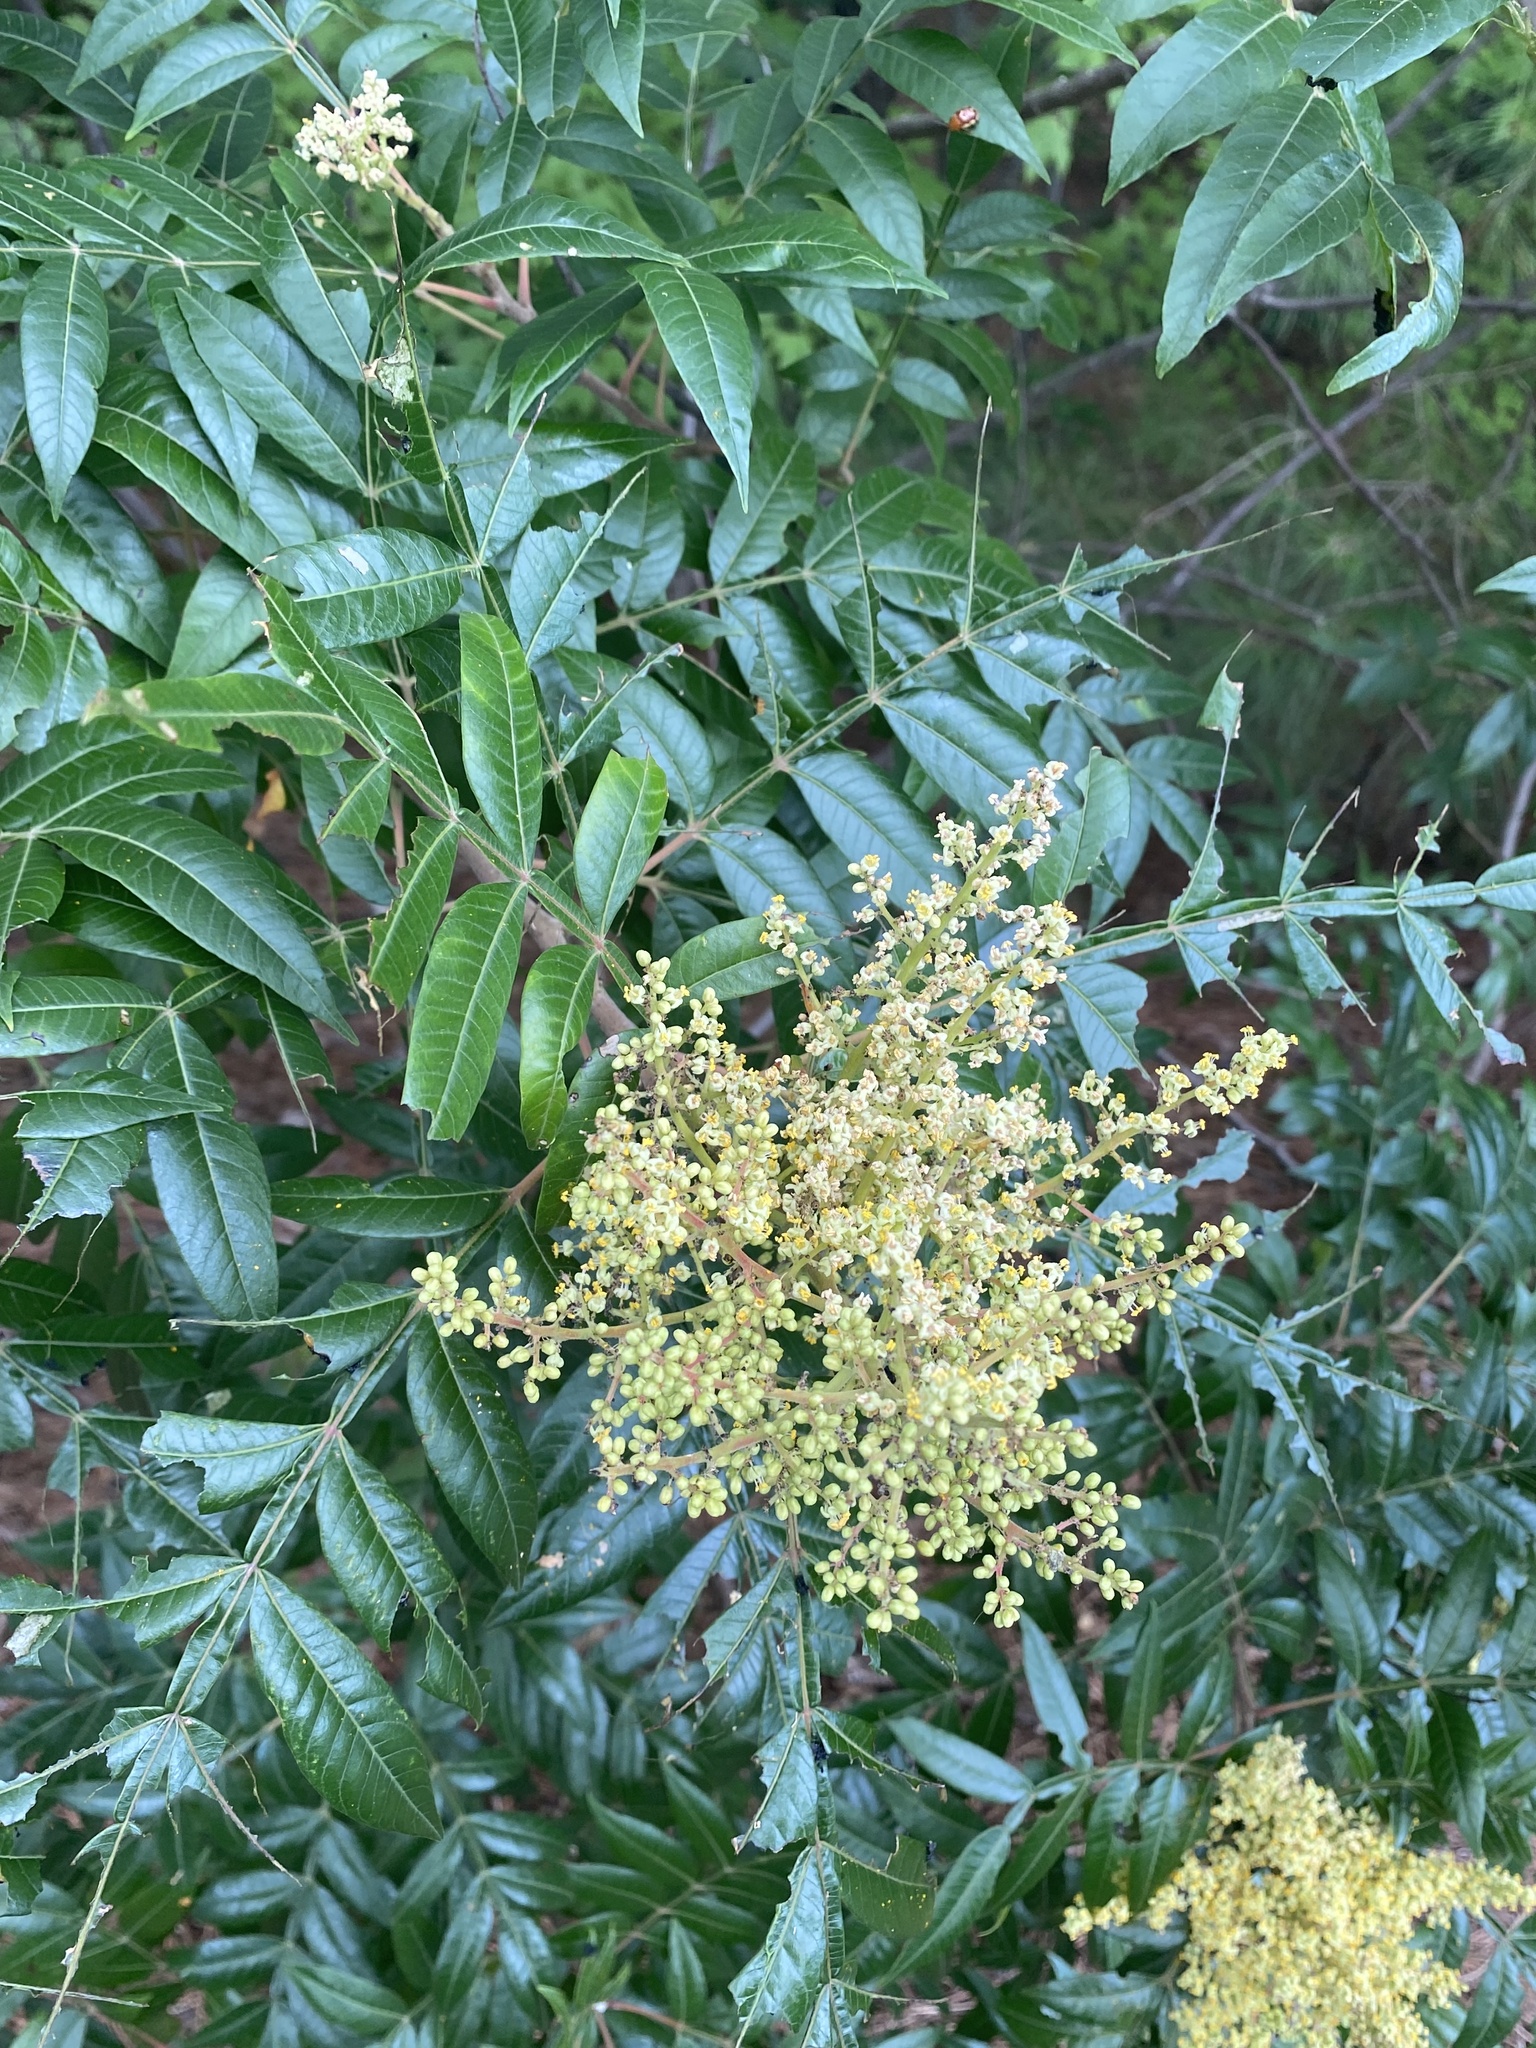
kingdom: Animalia
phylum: Arthropoda
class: Insecta
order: Coleoptera
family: Chrysomelidae
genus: Blepharida
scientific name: Blepharida rhois
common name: Sumac flea beetle
